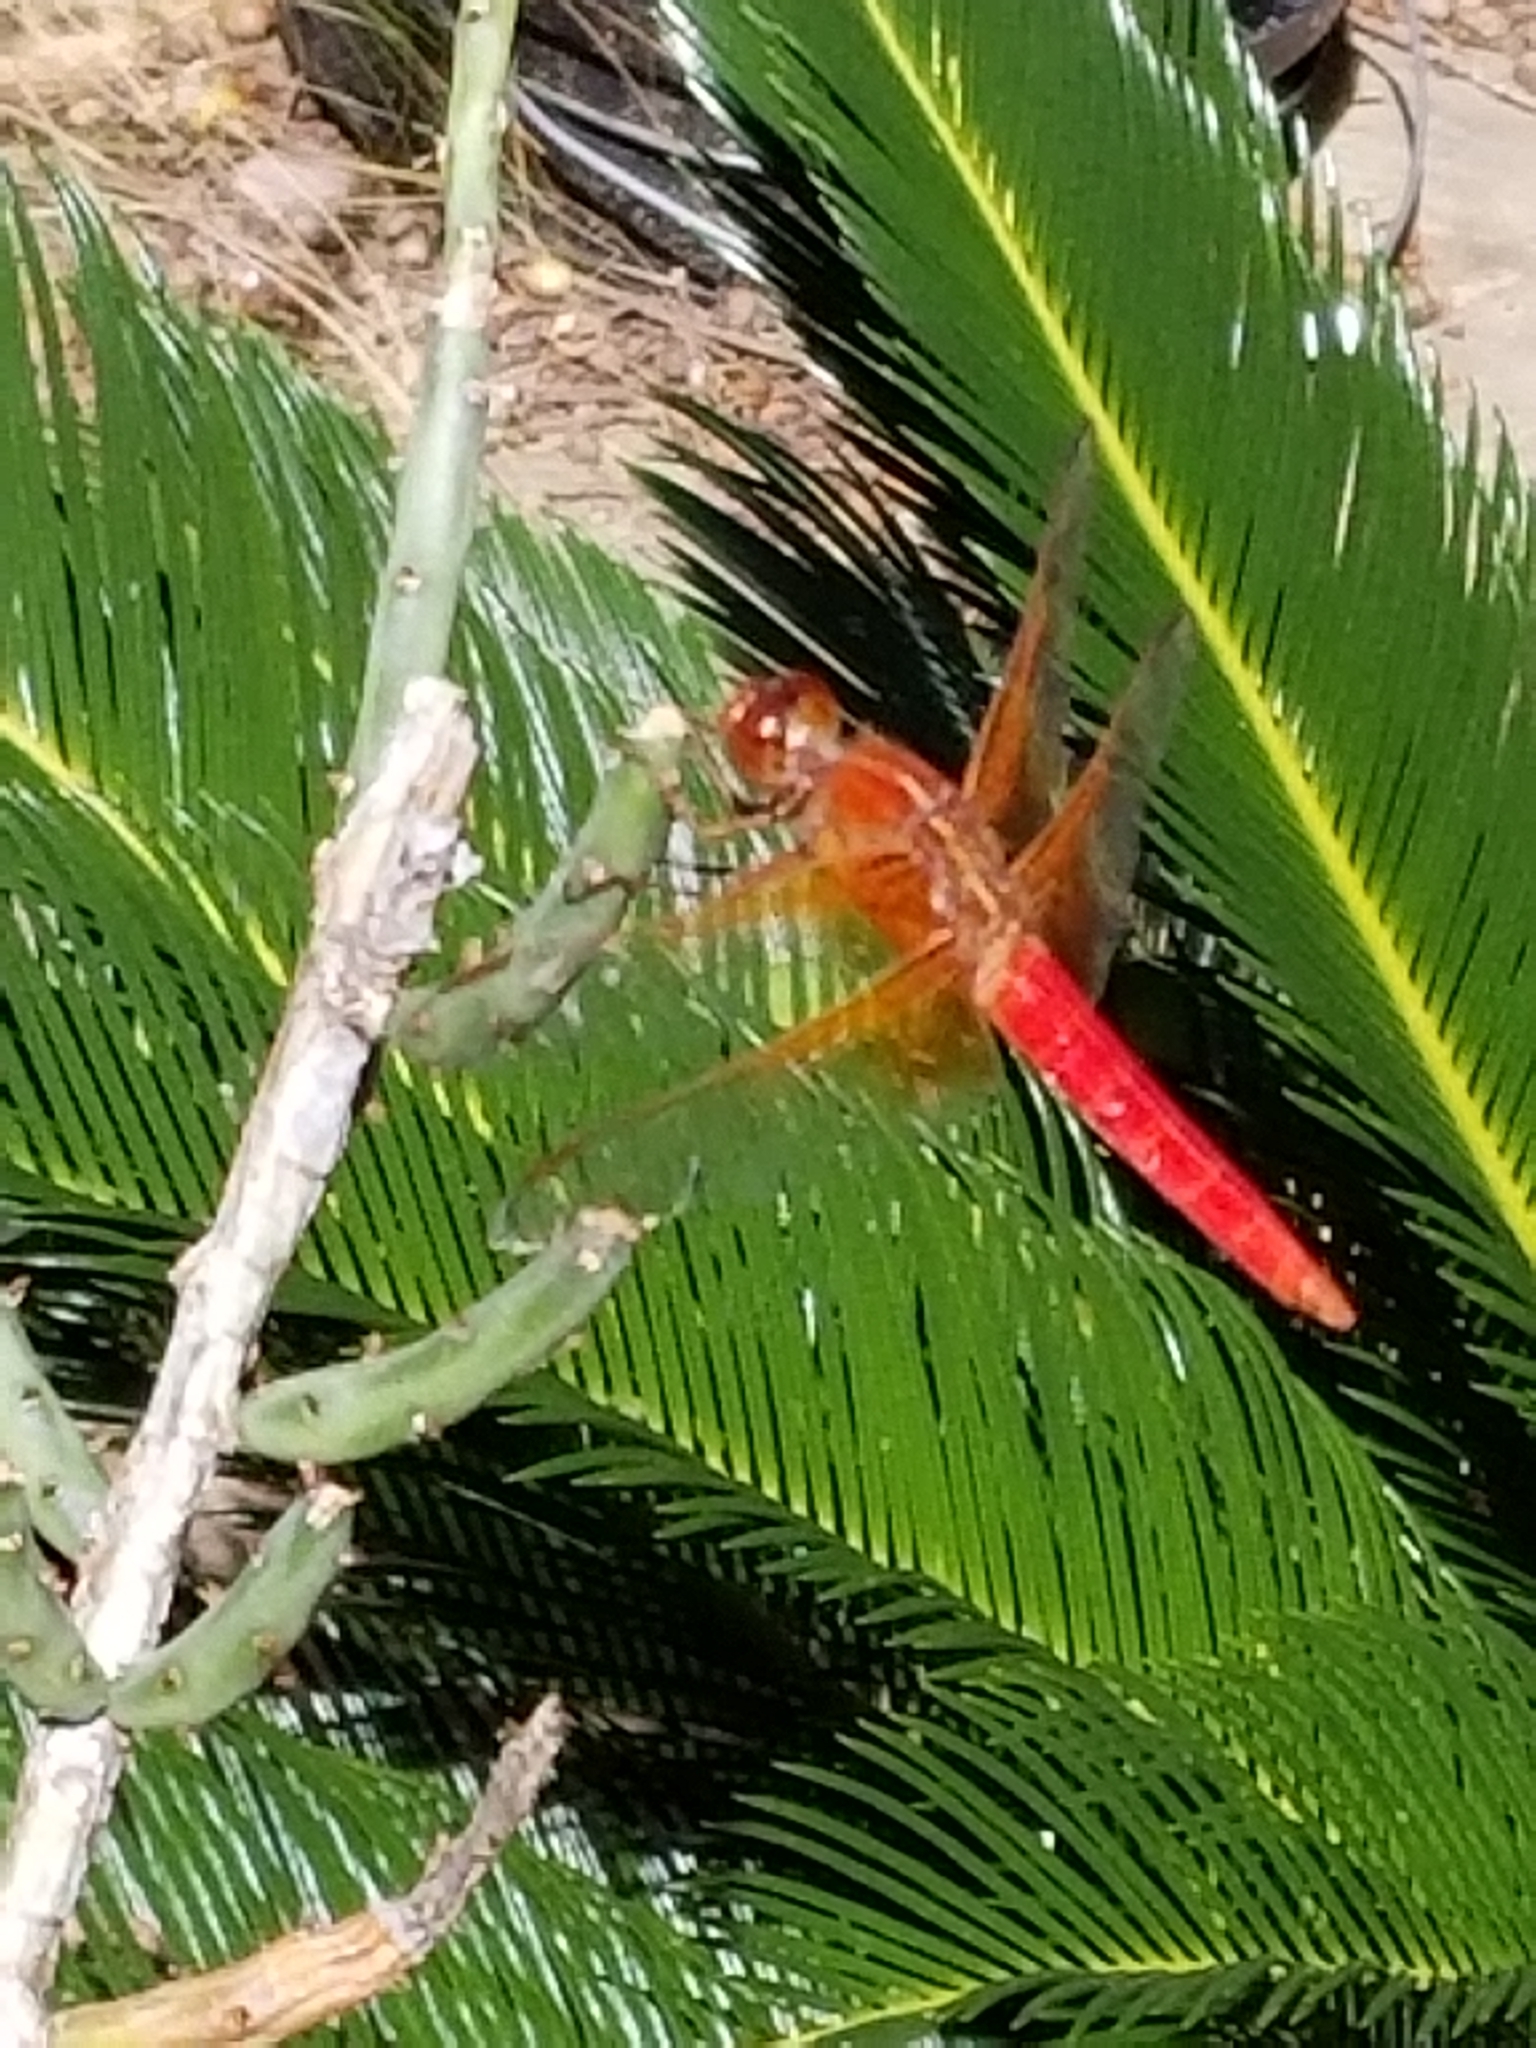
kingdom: Animalia
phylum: Arthropoda
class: Insecta
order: Odonata
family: Libellulidae
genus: Libellula
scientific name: Libellula croceipennis
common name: Neon skimmer
